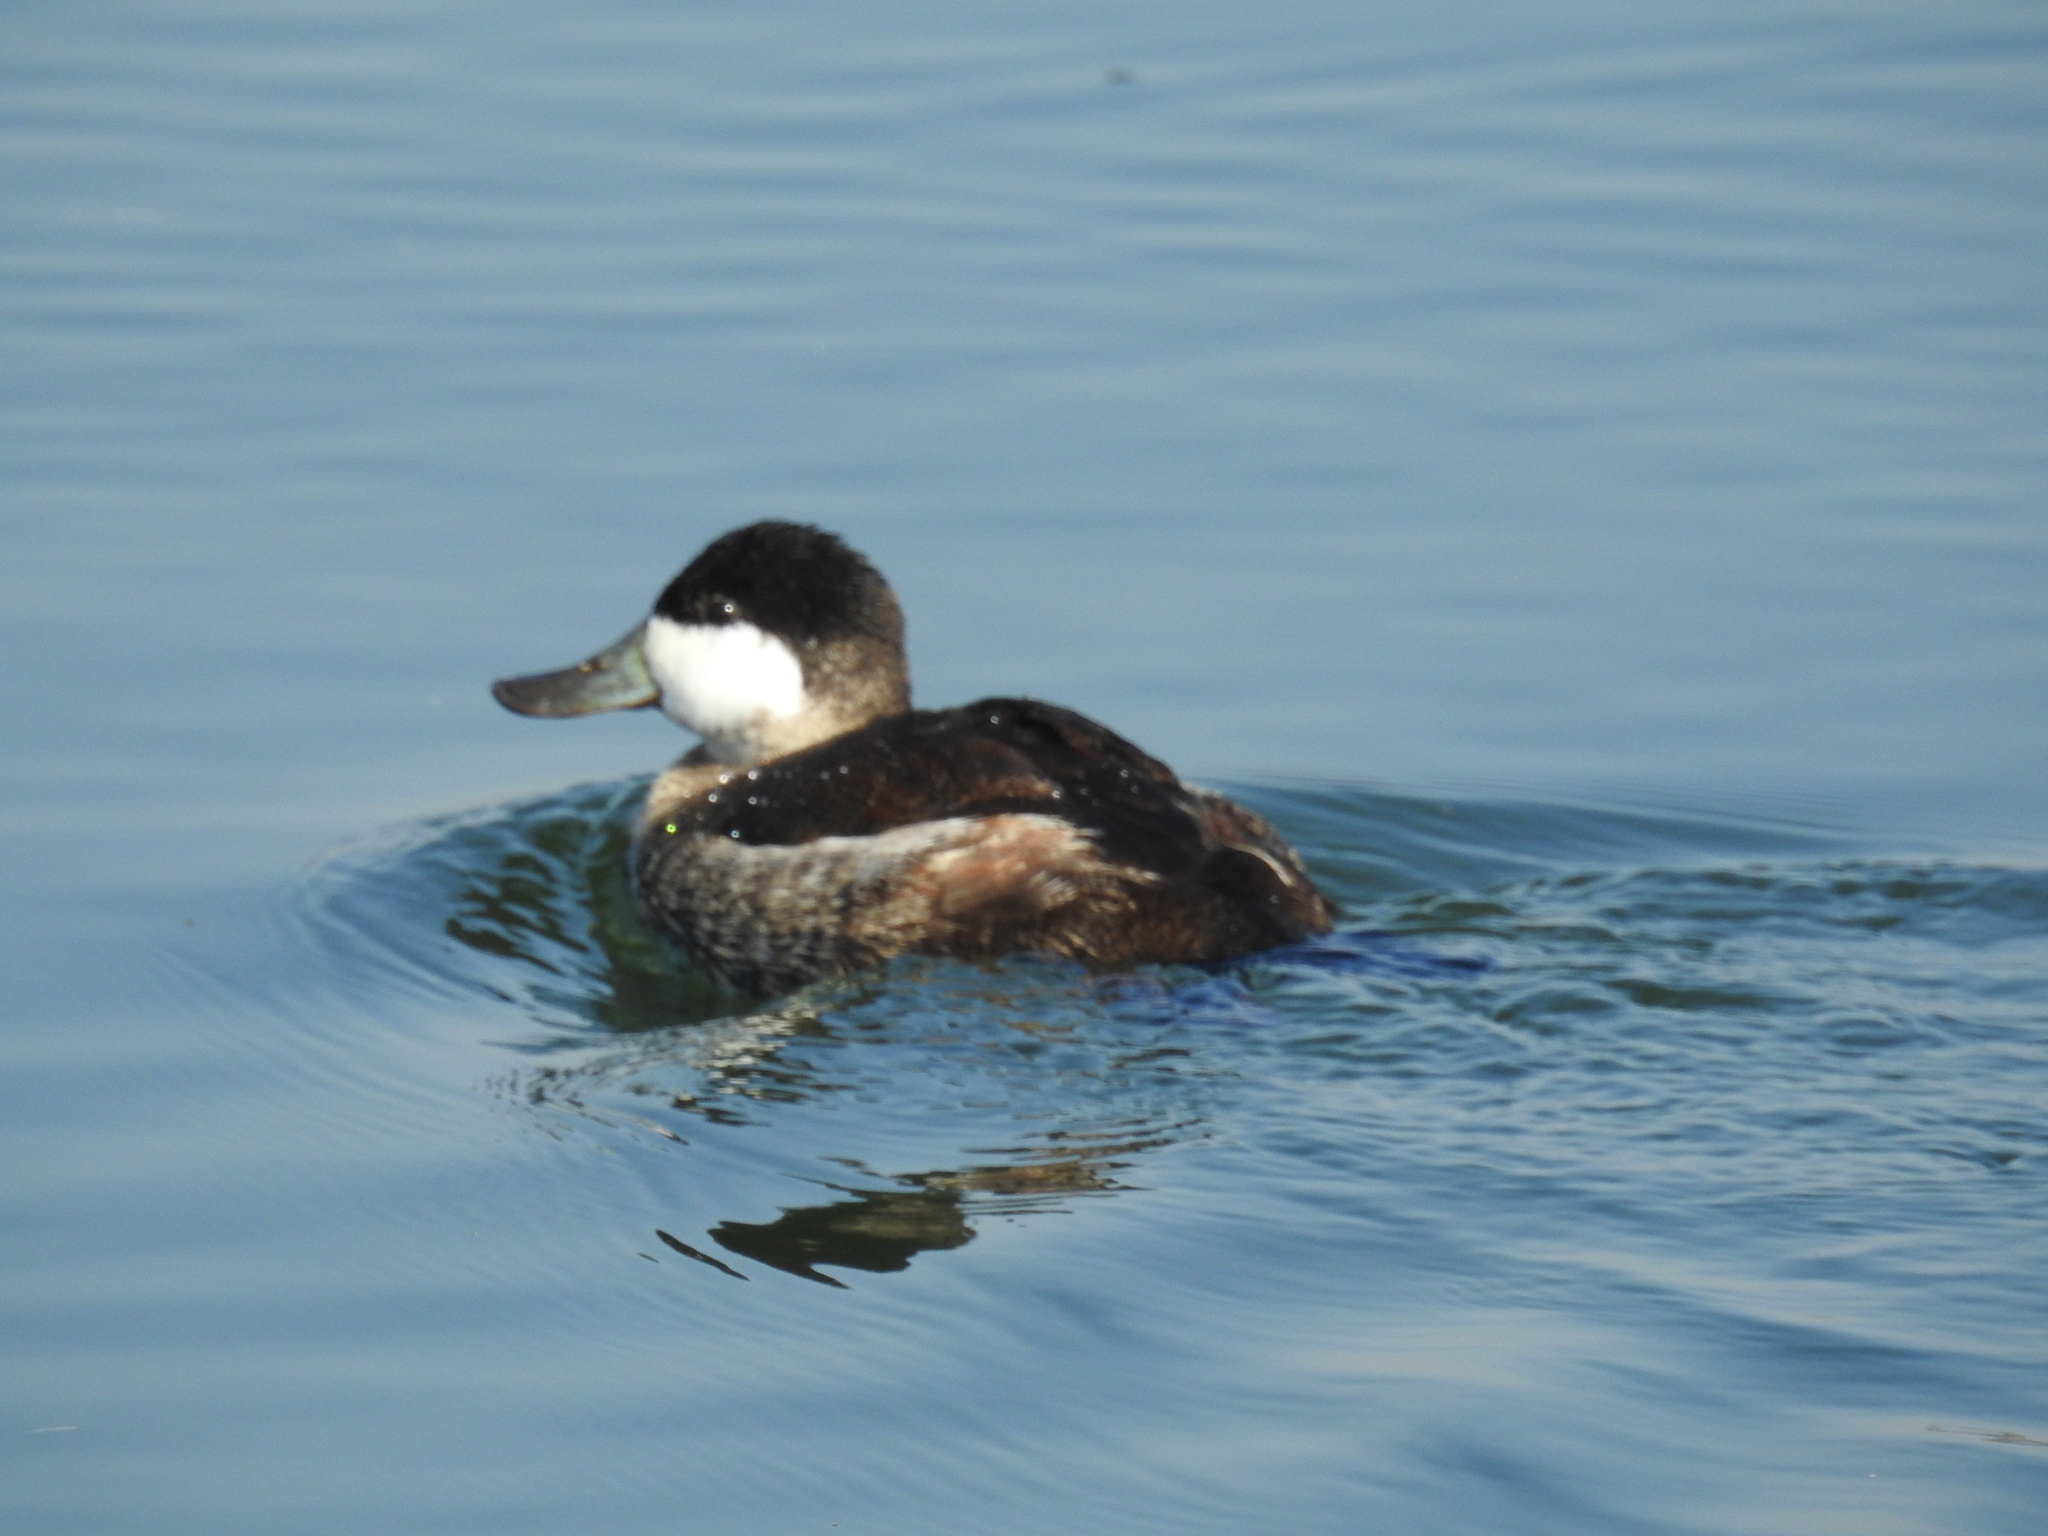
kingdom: Animalia
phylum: Chordata
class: Aves
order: Anseriformes
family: Anatidae
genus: Oxyura
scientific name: Oxyura jamaicensis
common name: Ruddy duck
